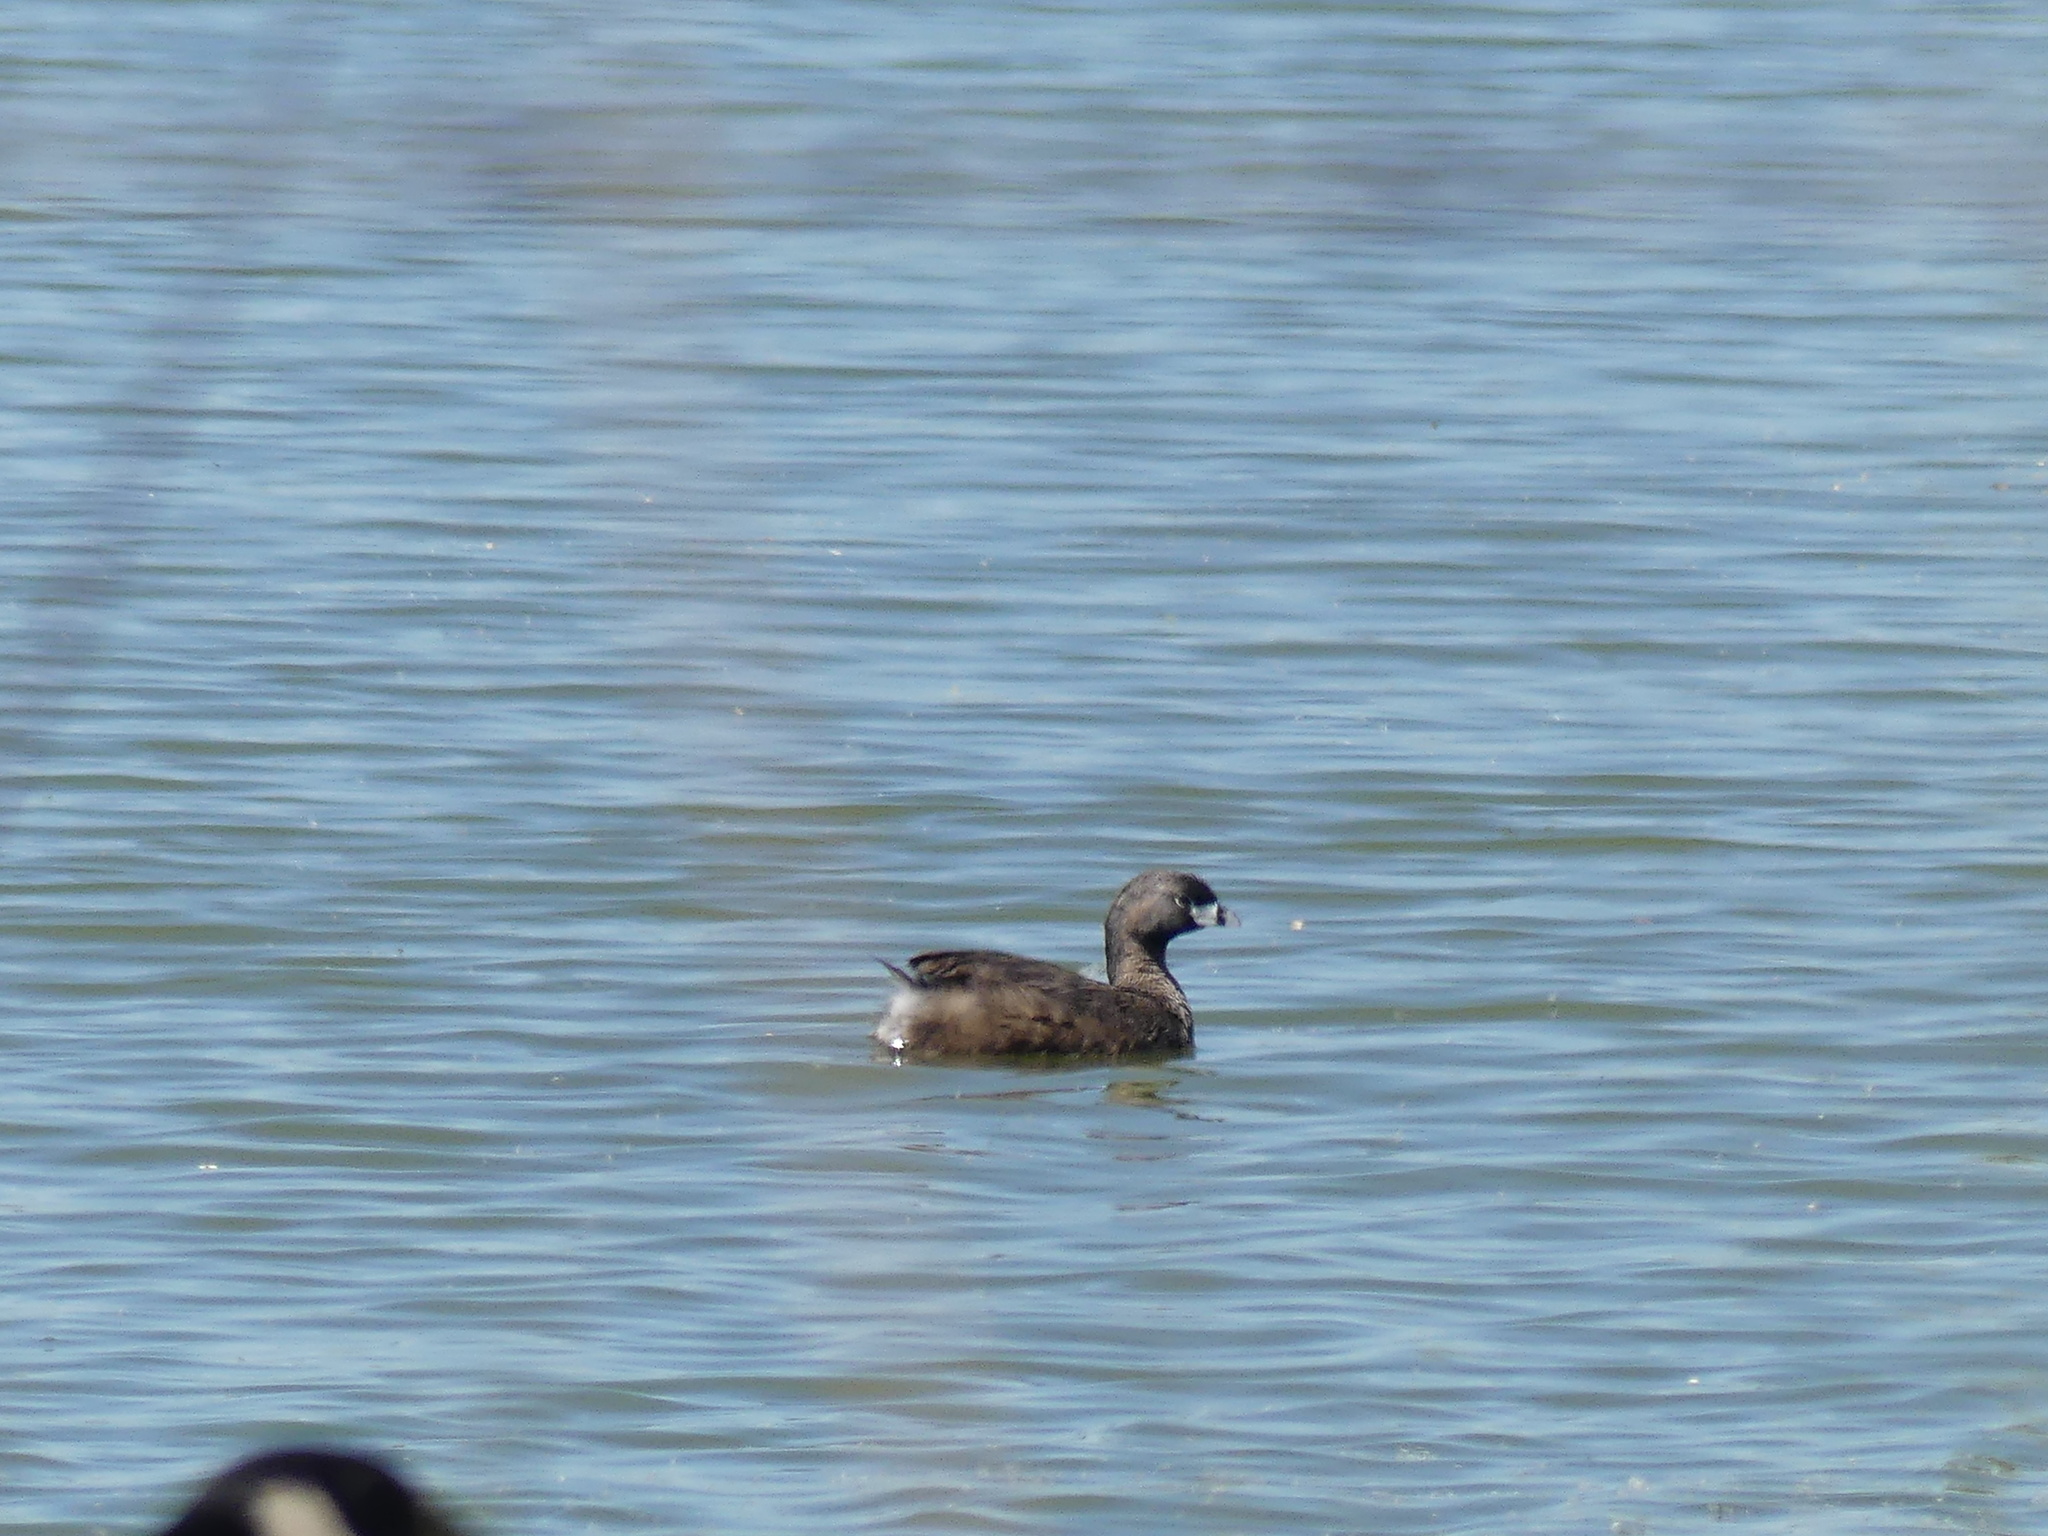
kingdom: Animalia
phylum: Chordata
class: Aves
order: Podicipediformes
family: Podicipedidae
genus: Podilymbus
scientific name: Podilymbus podiceps
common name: Pied-billed grebe
